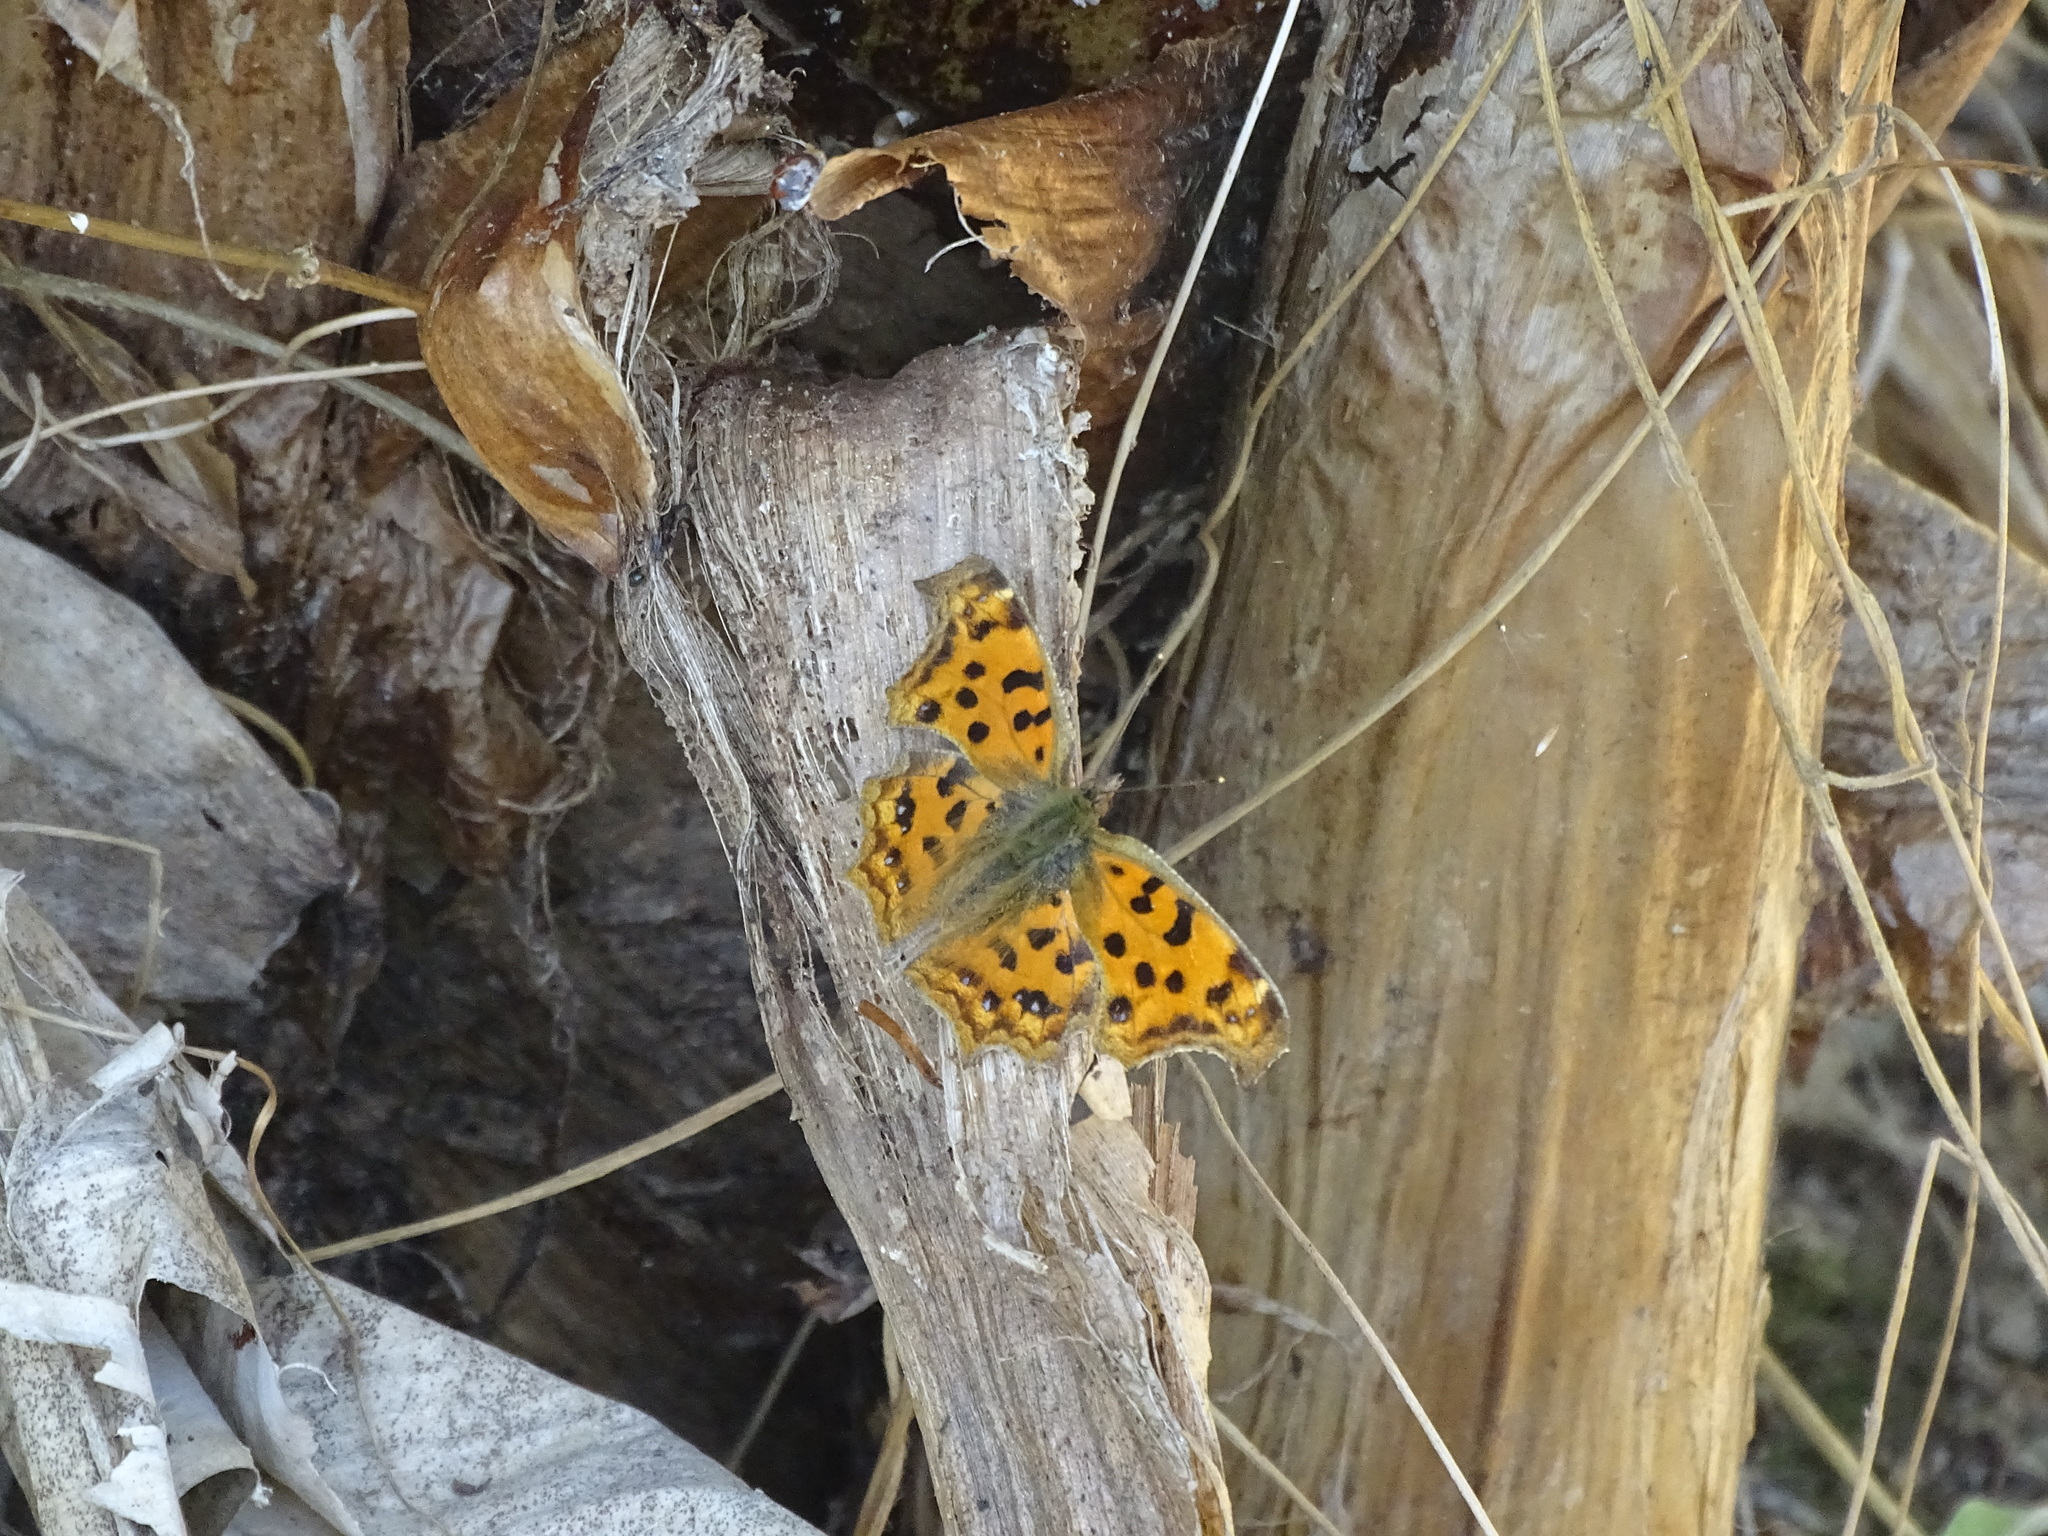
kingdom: Animalia
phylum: Arthropoda
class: Insecta
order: Lepidoptera
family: Nymphalidae
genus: Polygonia
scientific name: Polygonia c-aureum
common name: Asian comma
